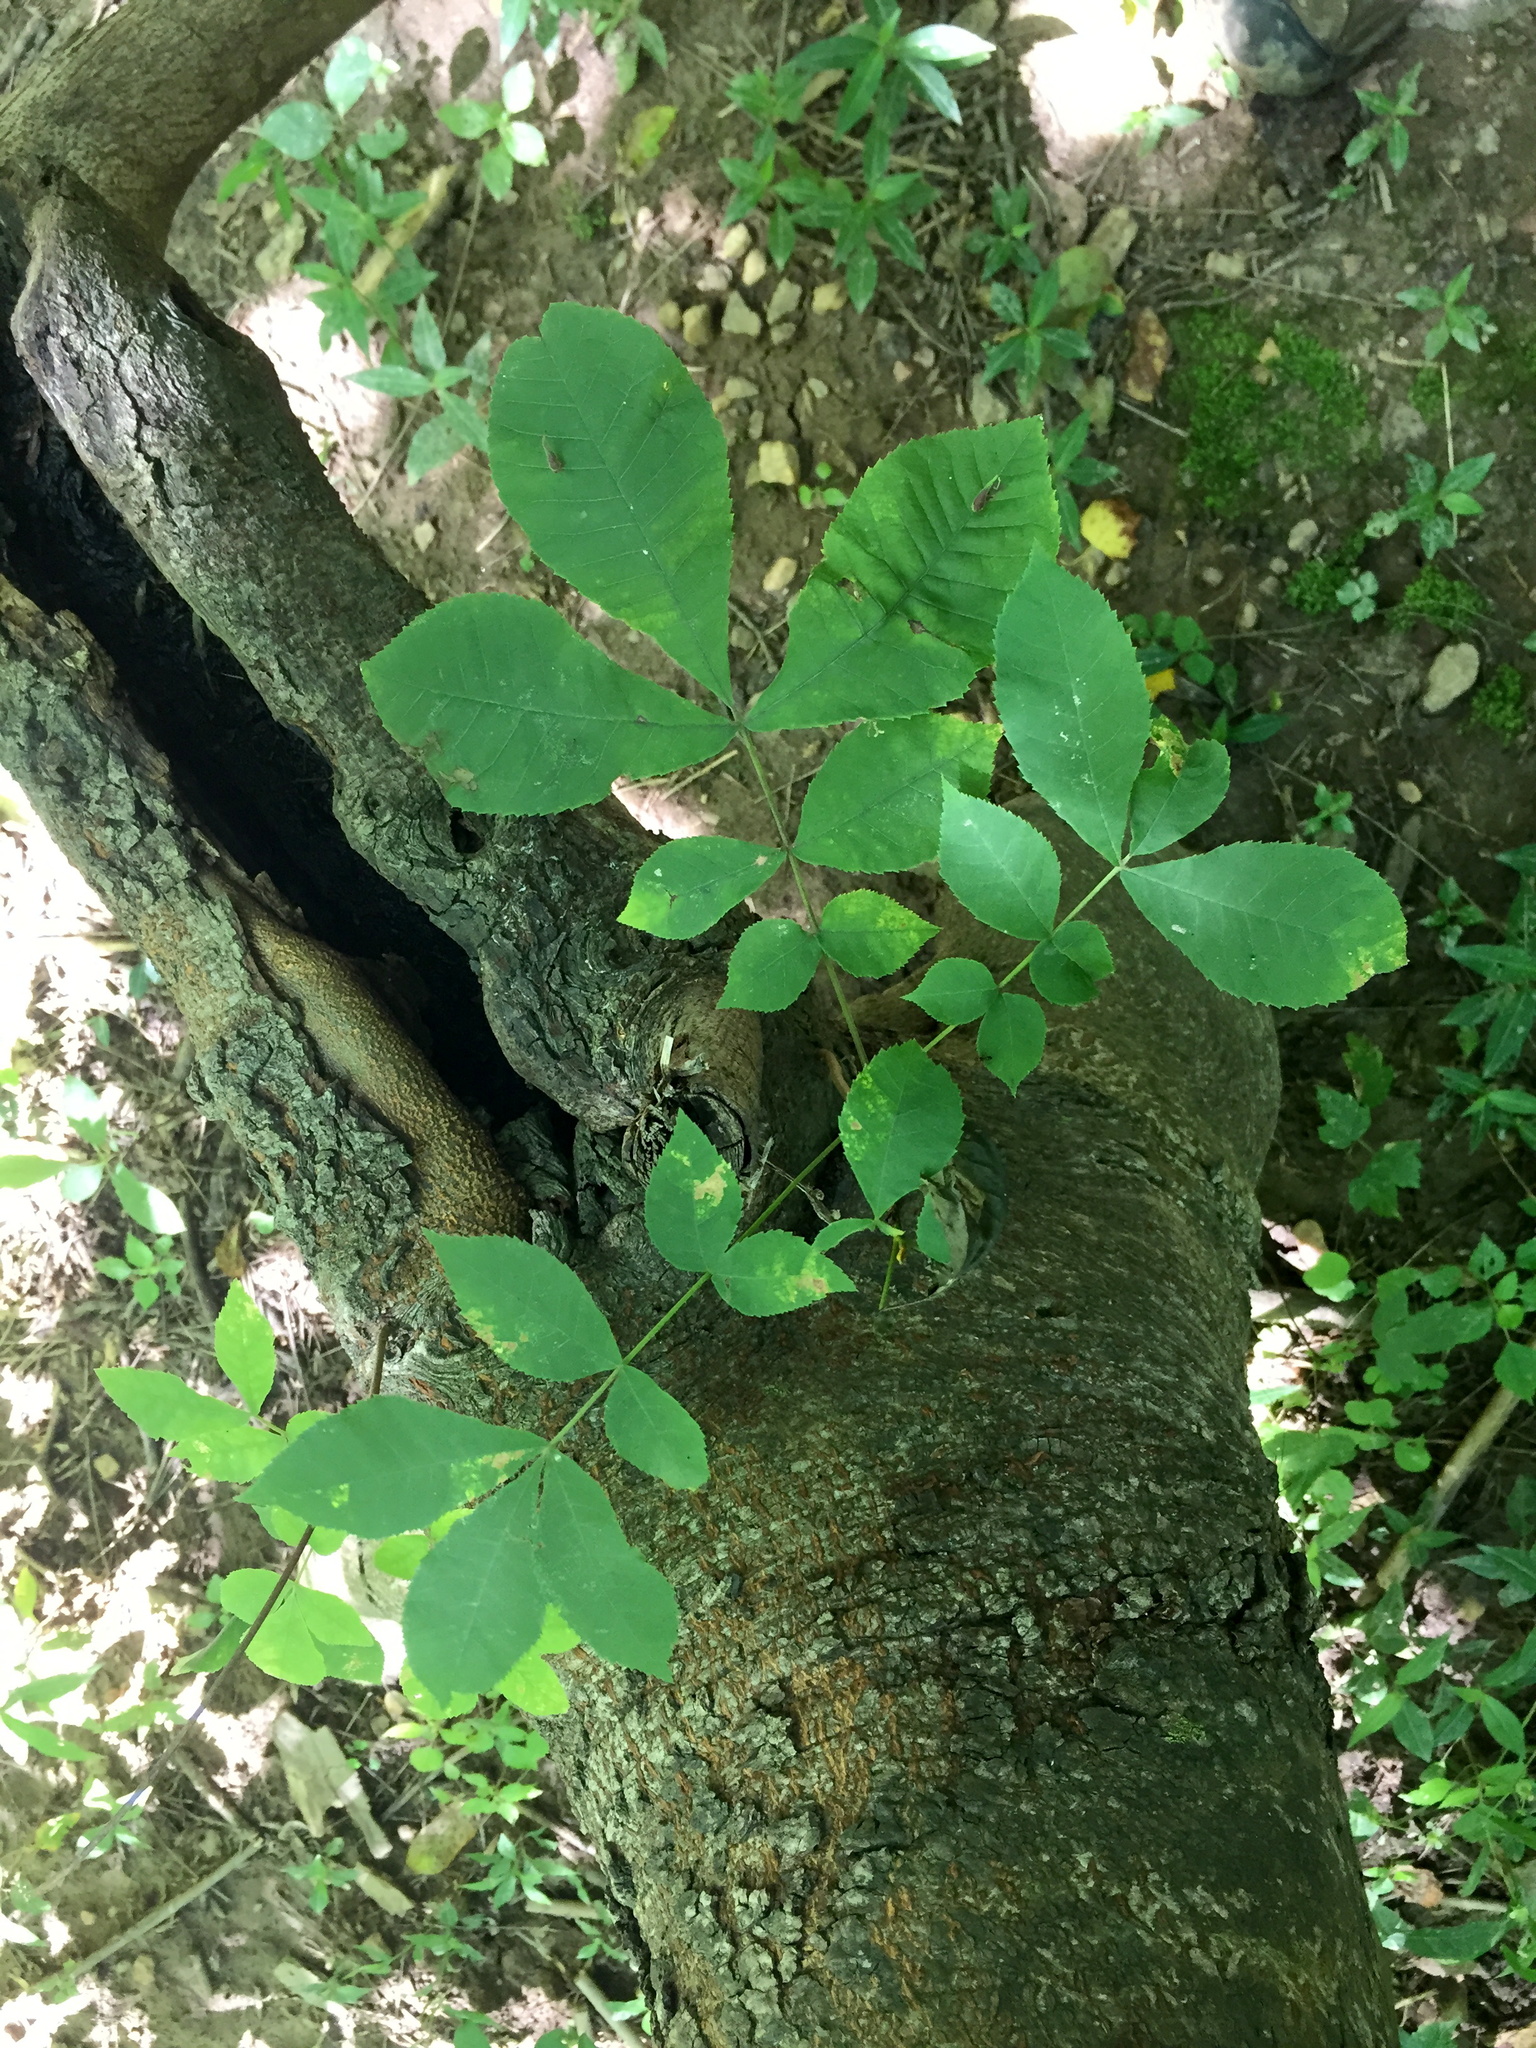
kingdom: Plantae
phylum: Tracheophyta
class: Magnoliopsida
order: Fagales
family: Juglandaceae
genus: Carya
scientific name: Carya cordiformis
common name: Bitternut hickory
